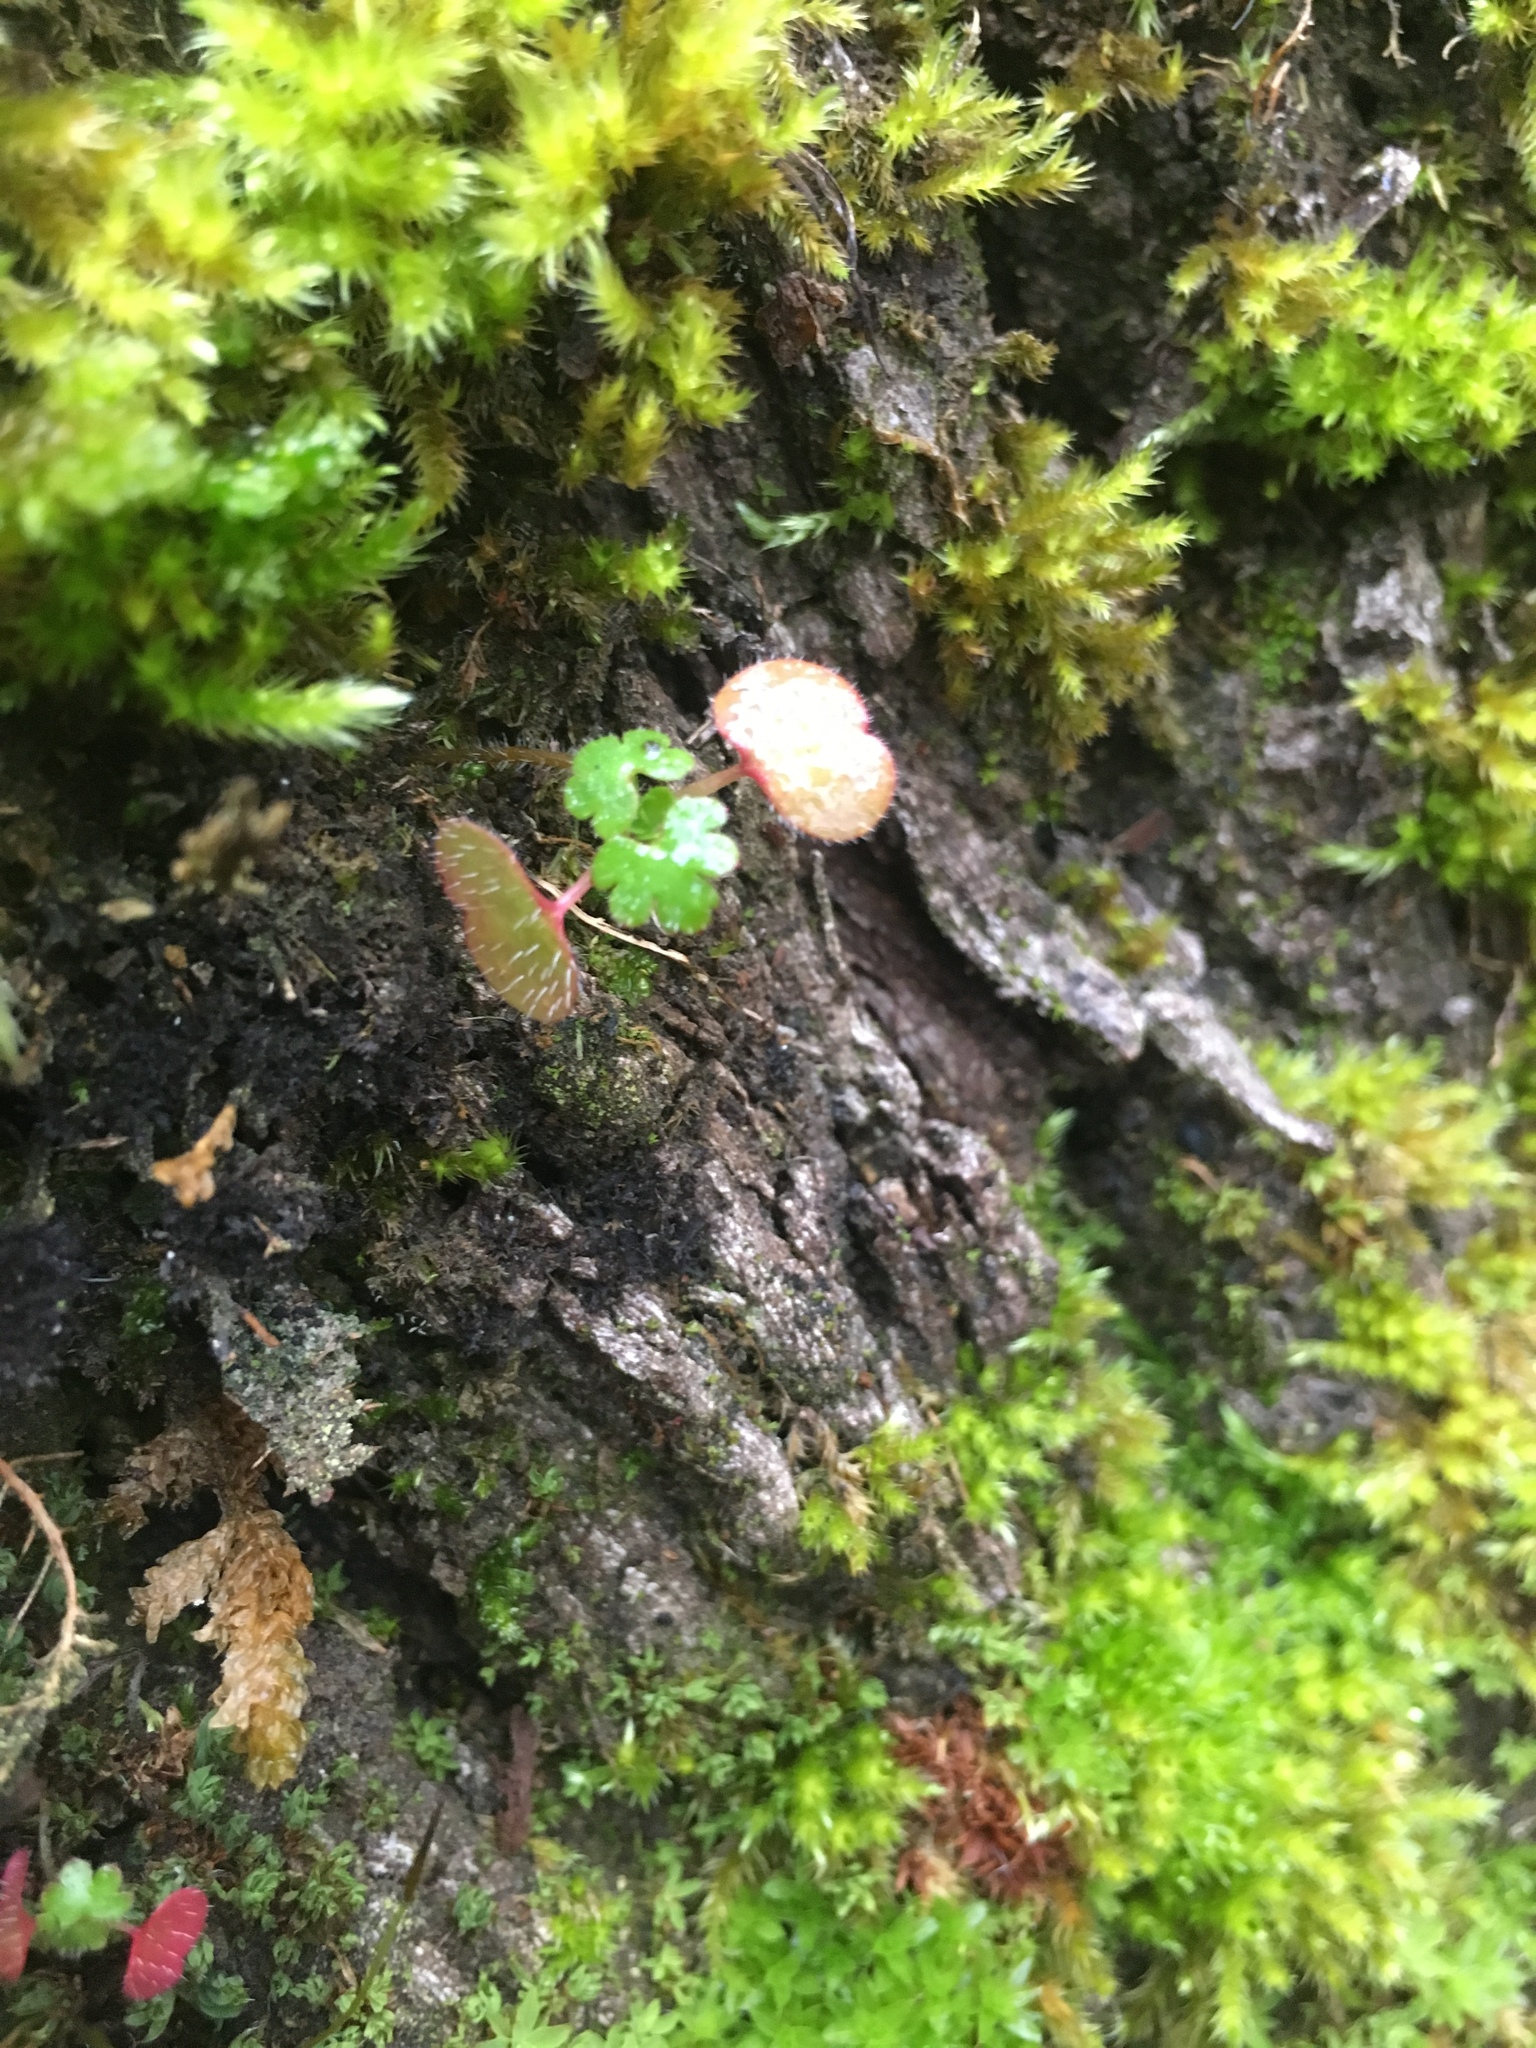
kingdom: Plantae
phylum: Tracheophyta
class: Magnoliopsida
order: Geraniales
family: Geraniaceae
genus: Geranium
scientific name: Geranium lucidum
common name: Shining crane's-bill
